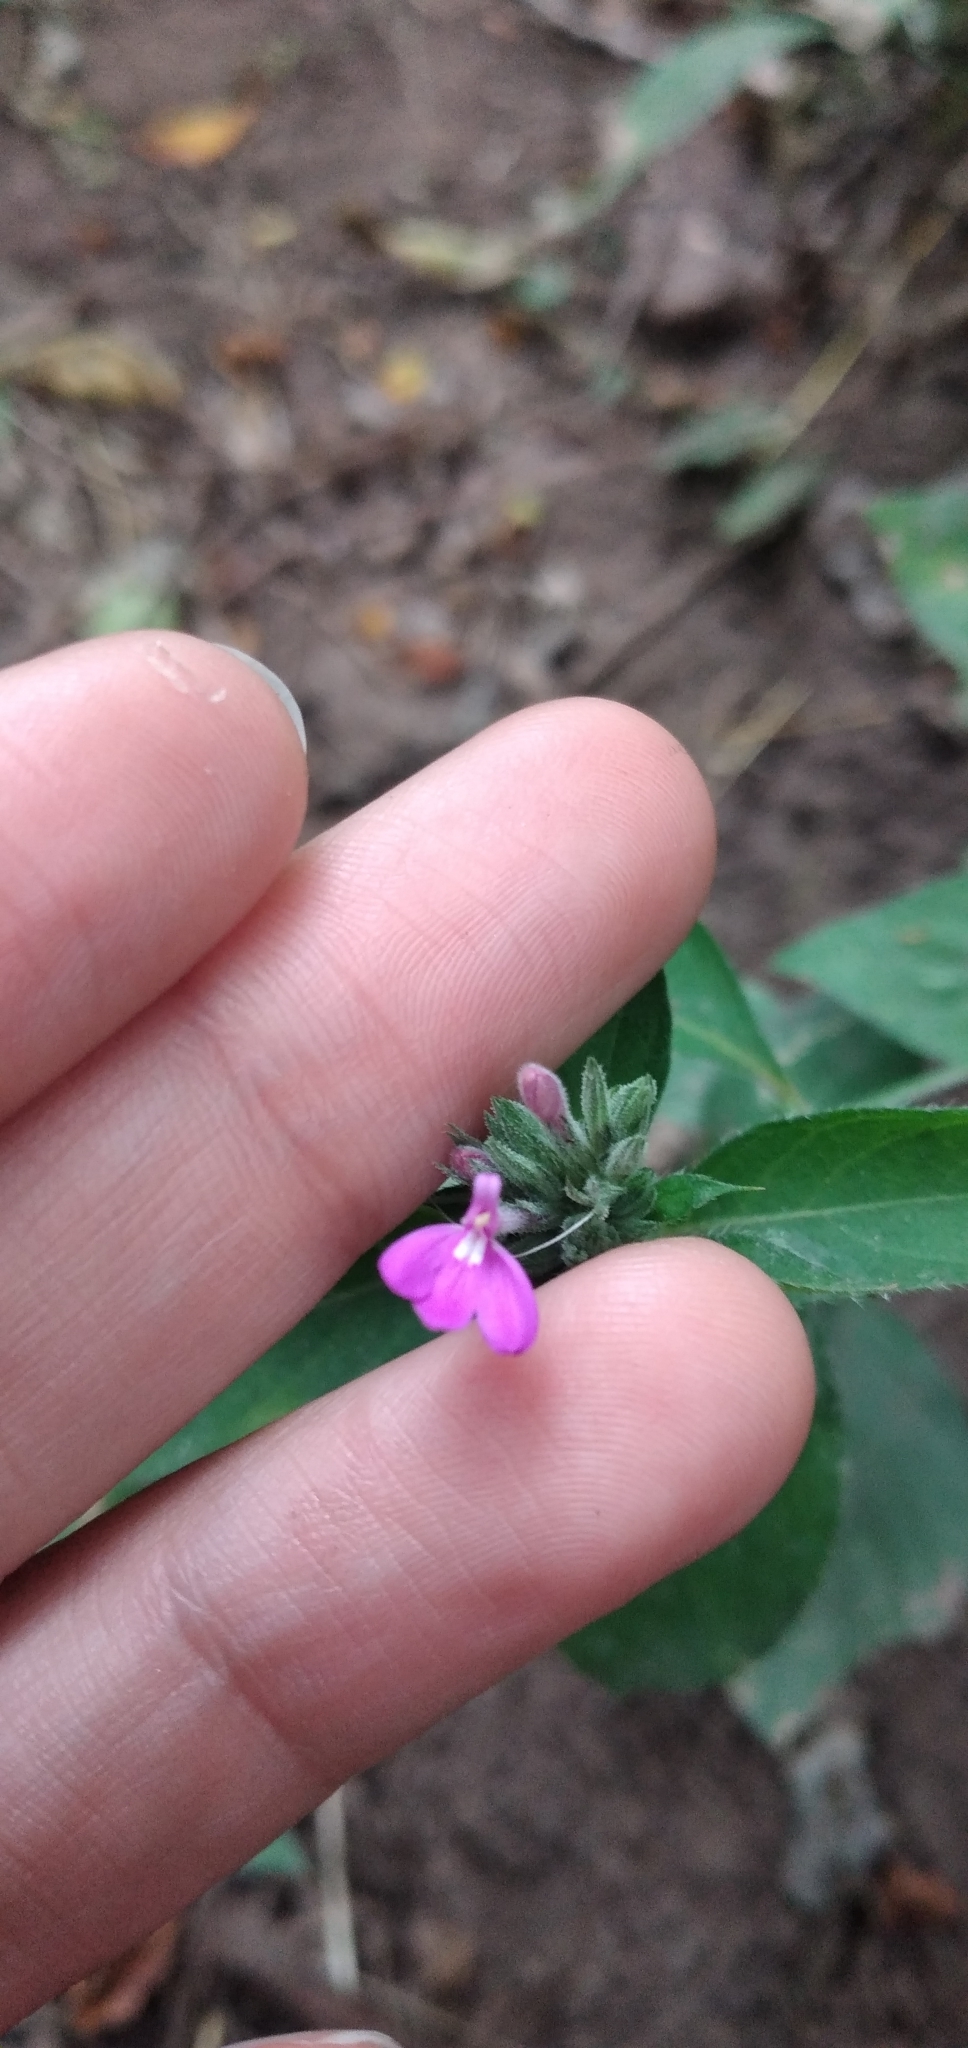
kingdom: Plantae
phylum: Tracheophyta
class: Magnoliopsida
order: Lamiales
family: Acanthaceae
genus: Justicia
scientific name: Justicia goudotii
